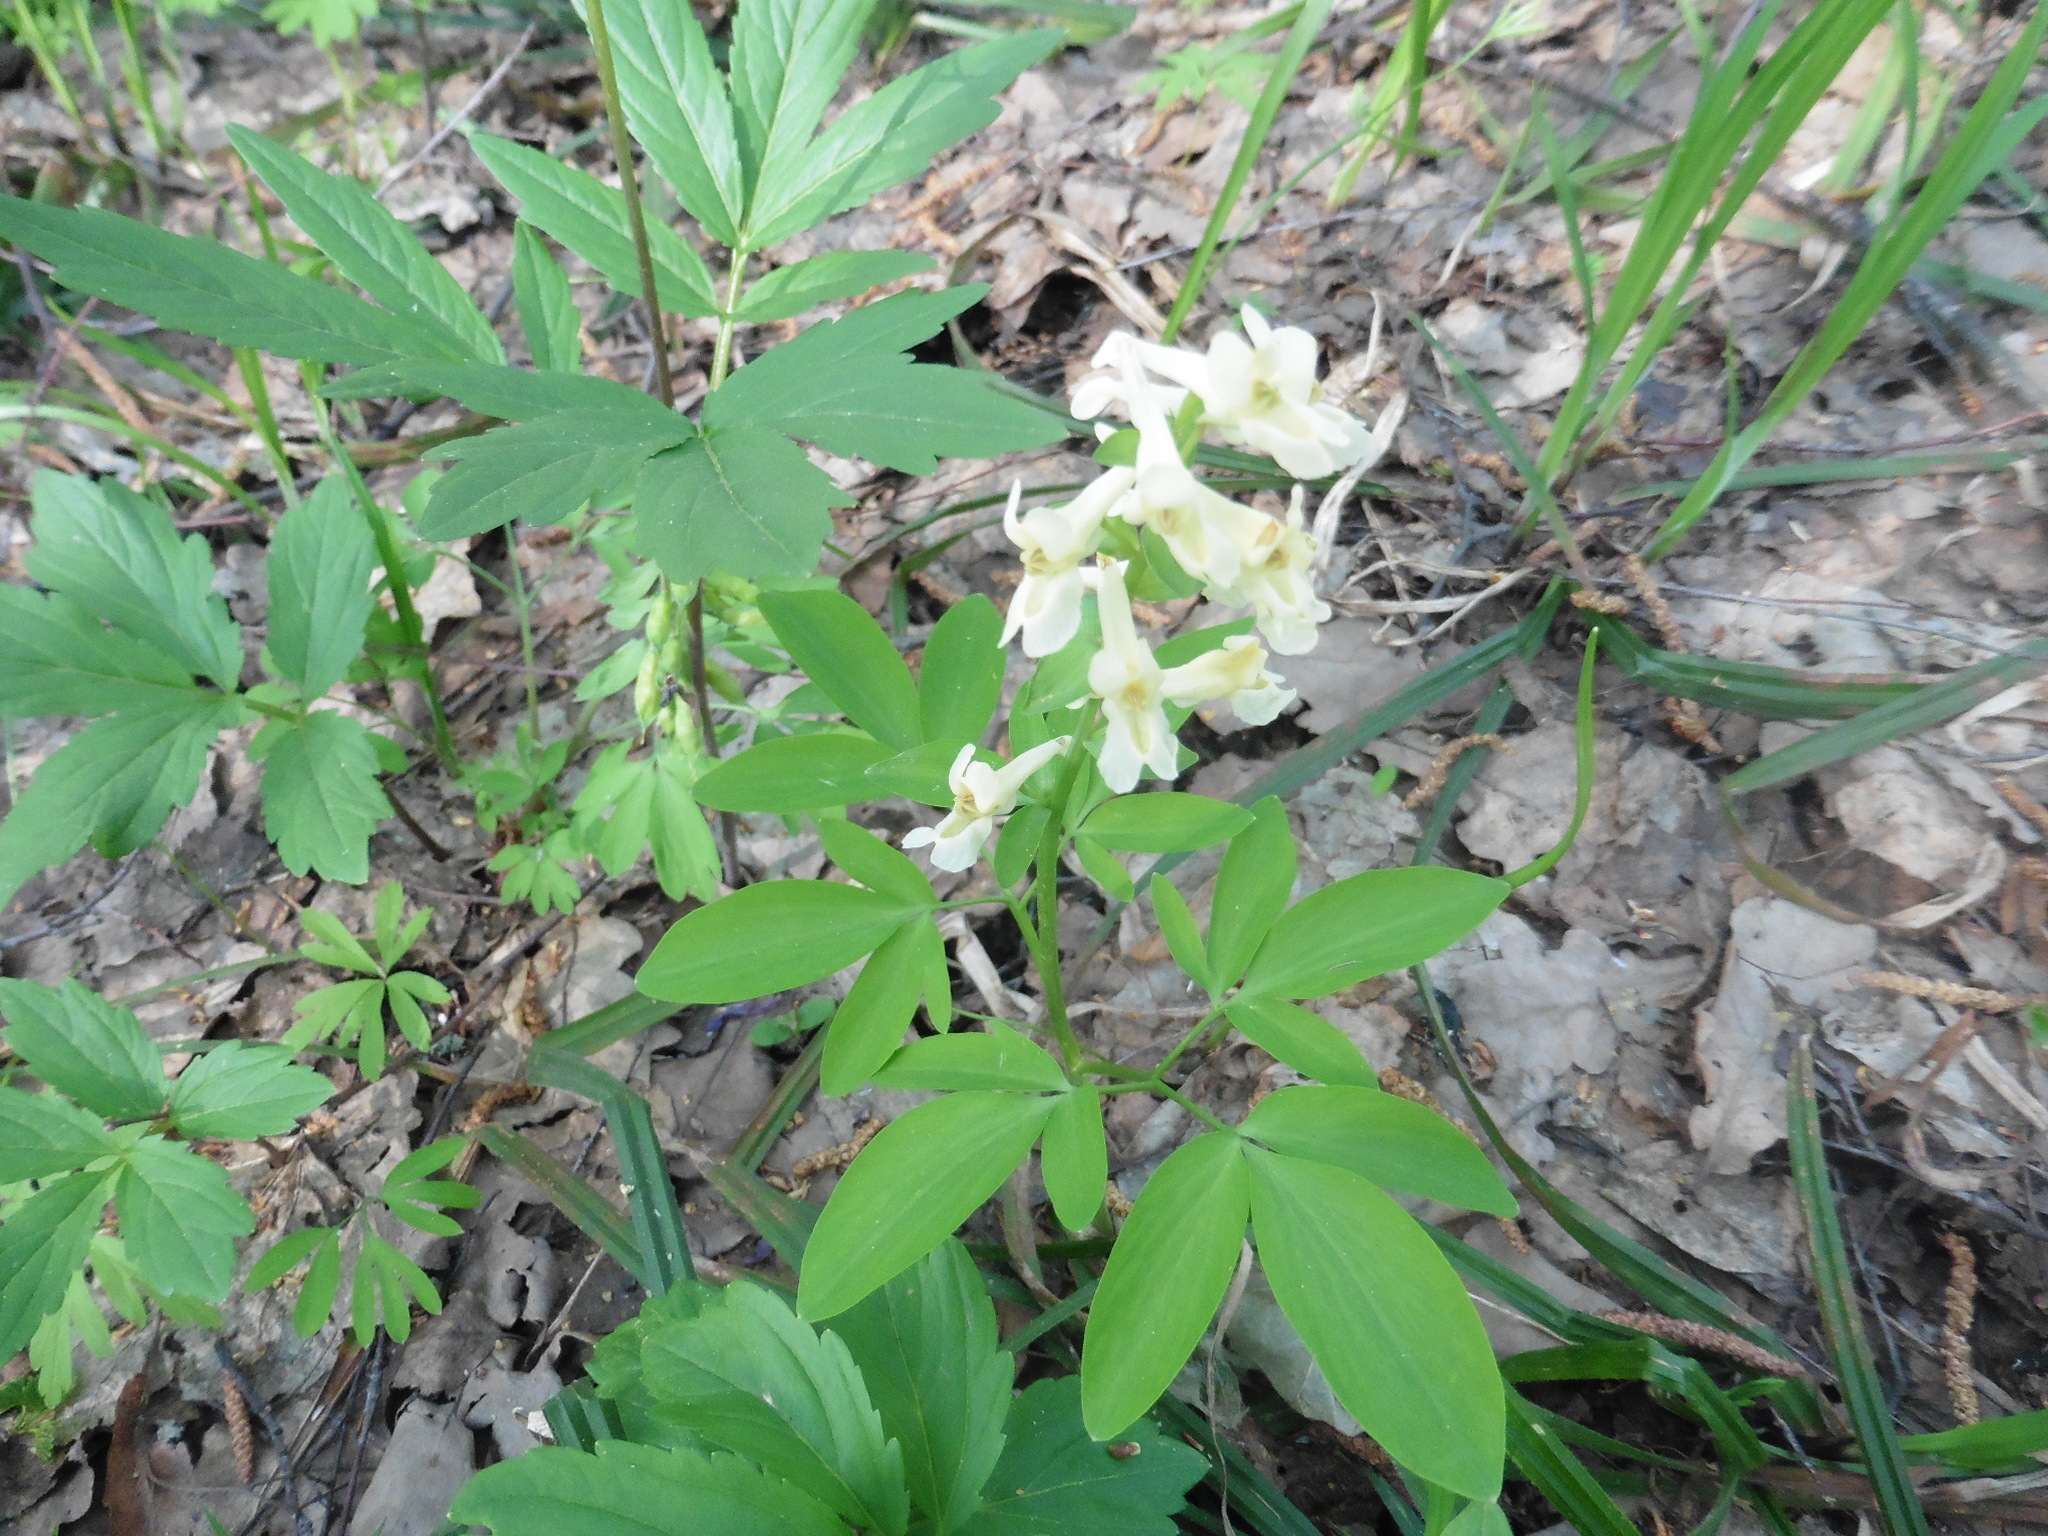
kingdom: Plantae
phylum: Tracheophyta
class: Magnoliopsida
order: Ranunculales
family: Papaveraceae
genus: Corydalis
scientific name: Corydalis cava
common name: Hollowroot
